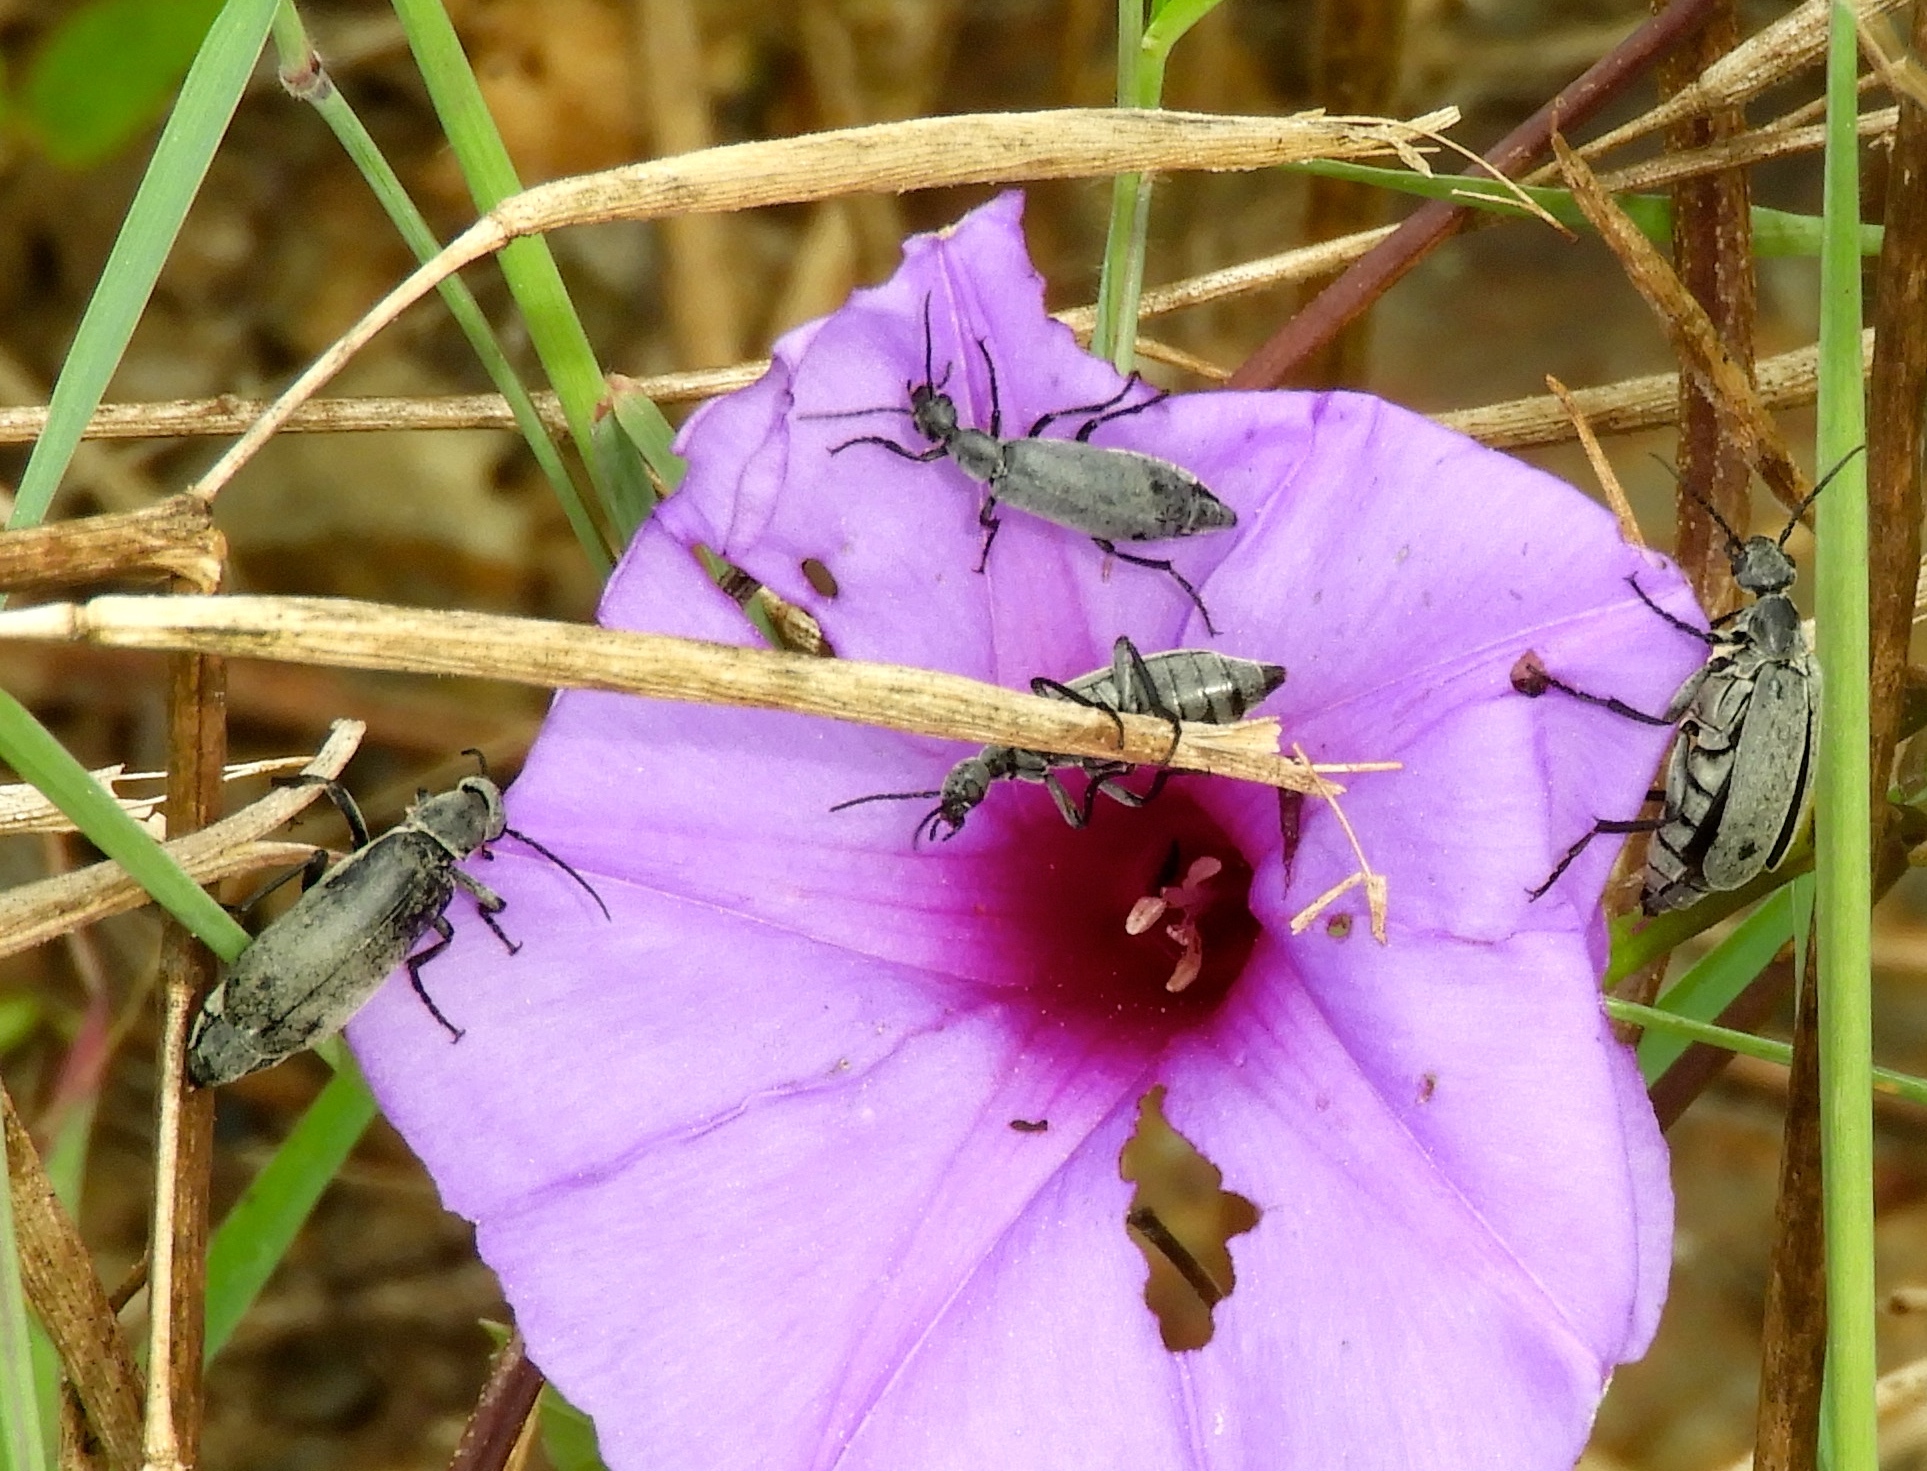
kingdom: Animalia
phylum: Arthropoda
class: Insecta
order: Coleoptera
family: Meloidae
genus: Epicauta
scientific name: Epicauta bipunctata
